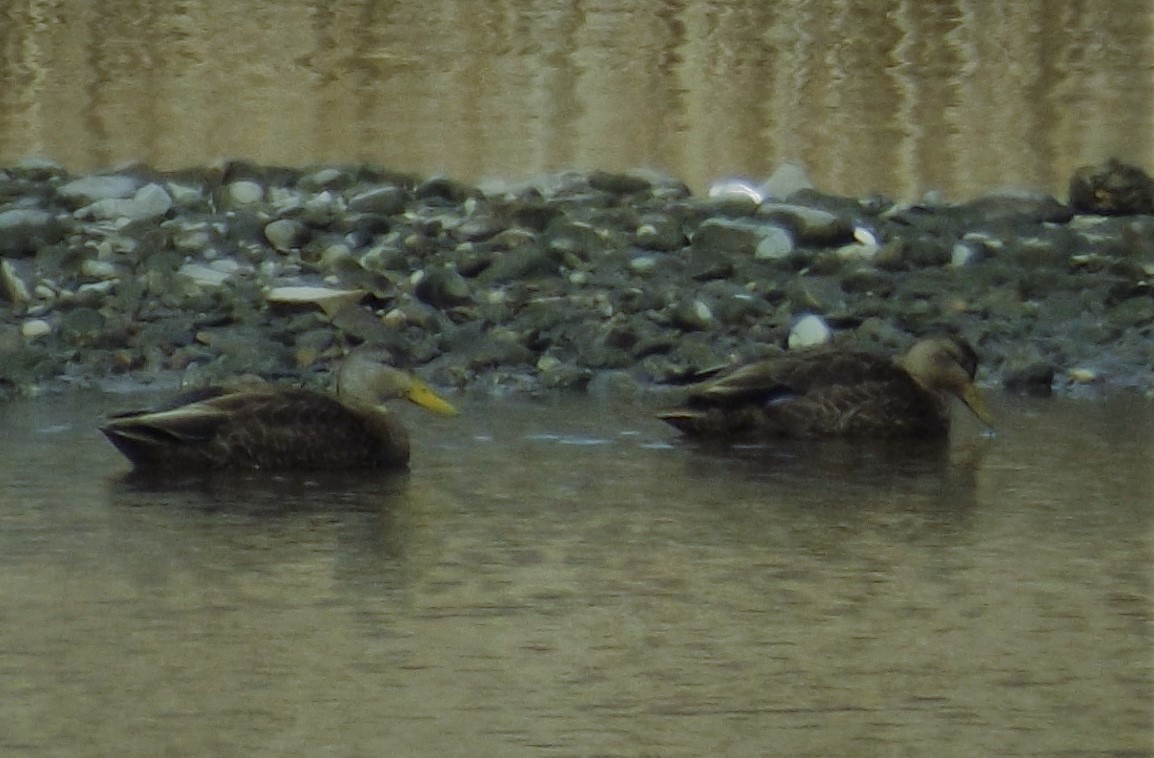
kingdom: Animalia
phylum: Chordata
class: Aves
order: Anseriformes
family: Anatidae
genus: Anas
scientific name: Anas rubripes
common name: American black duck
